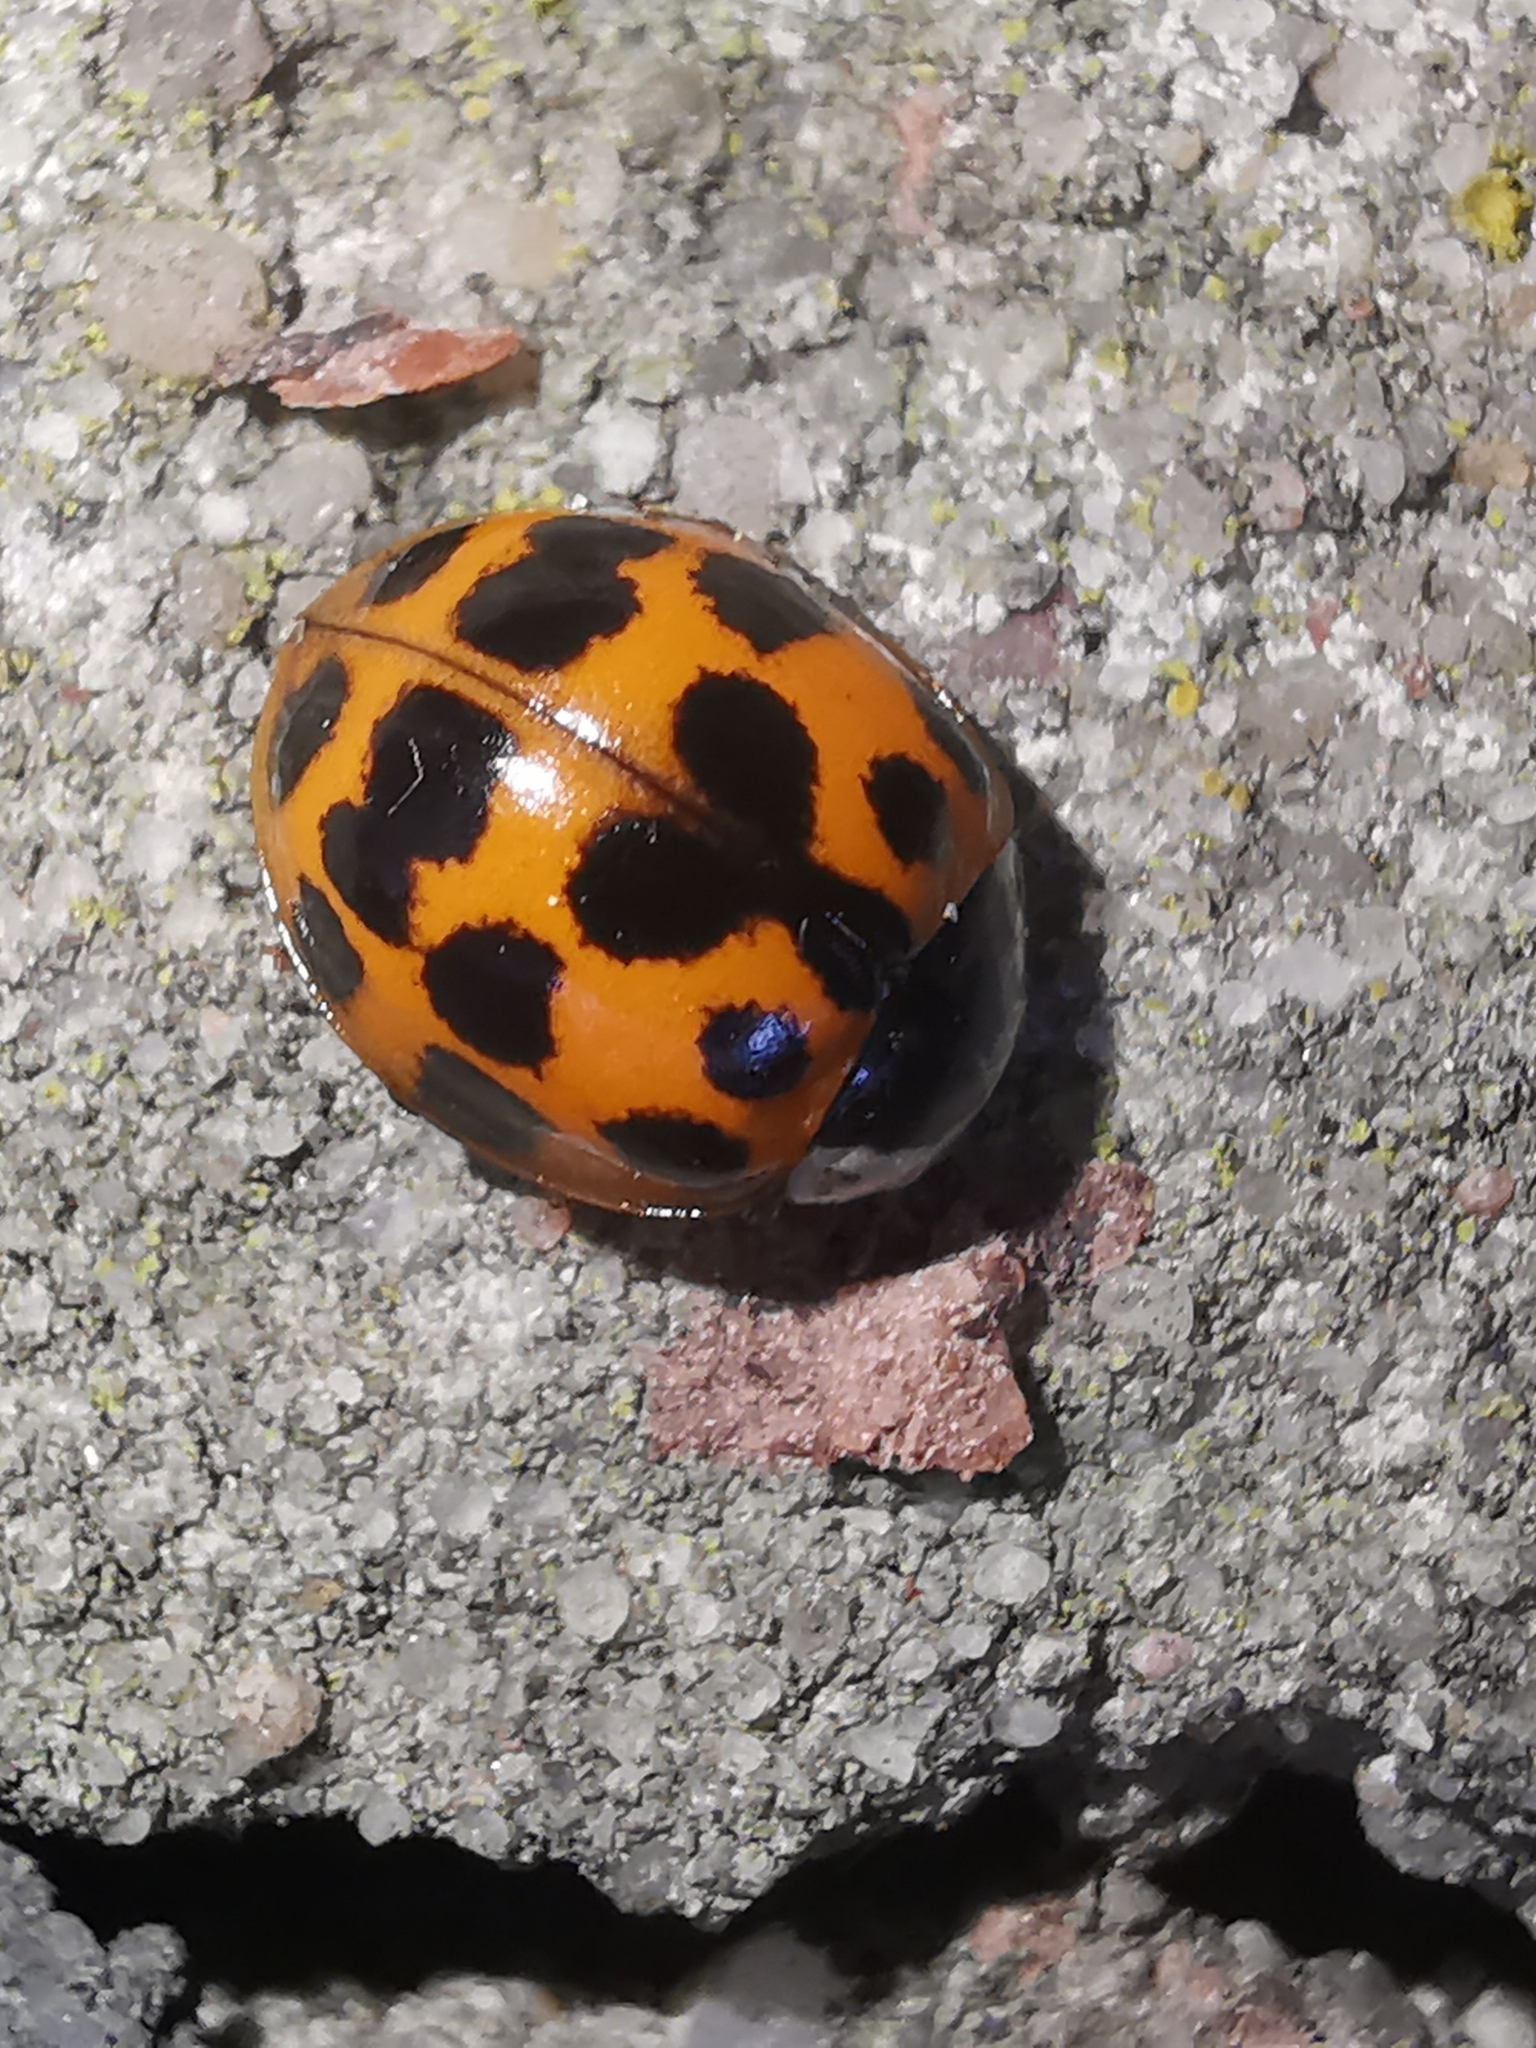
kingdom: Animalia
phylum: Arthropoda
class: Insecta
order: Coleoptera
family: Coccinellidae
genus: Harmonia
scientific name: Harmonia axyridis
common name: Harlequin ladybird
